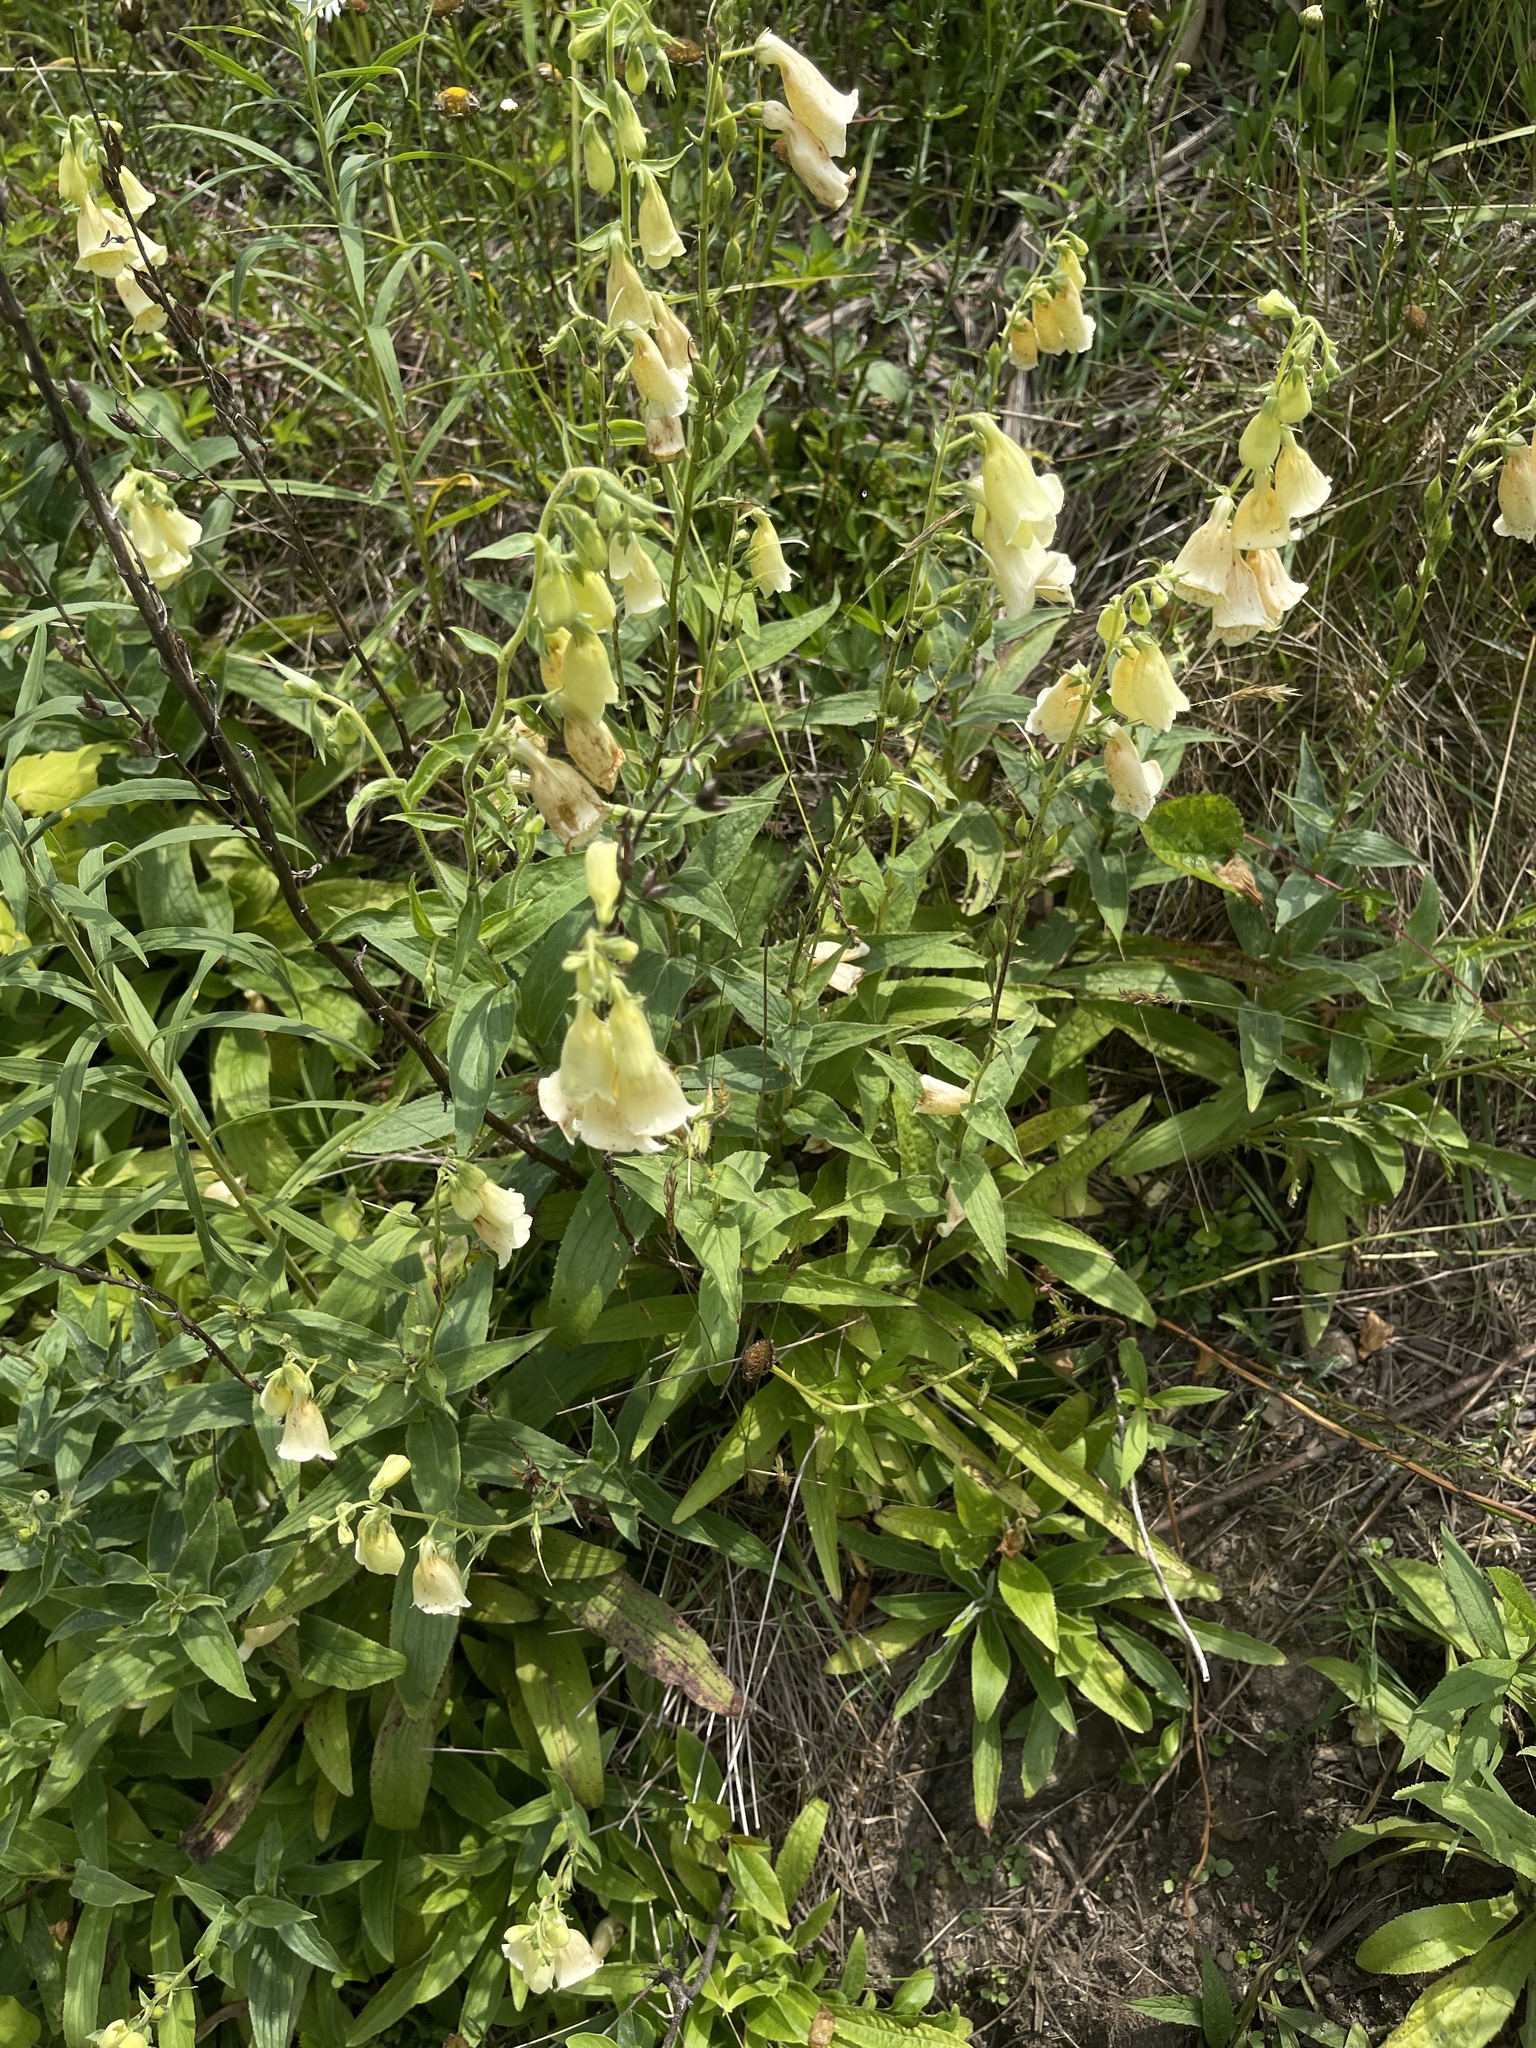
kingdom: Plantae
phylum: Tracheophyta
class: Magnoliopsida
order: Lamiales
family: Plantaginaceae
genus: Digitalis
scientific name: Digitalis grandiflora
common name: Yellow foxglove
